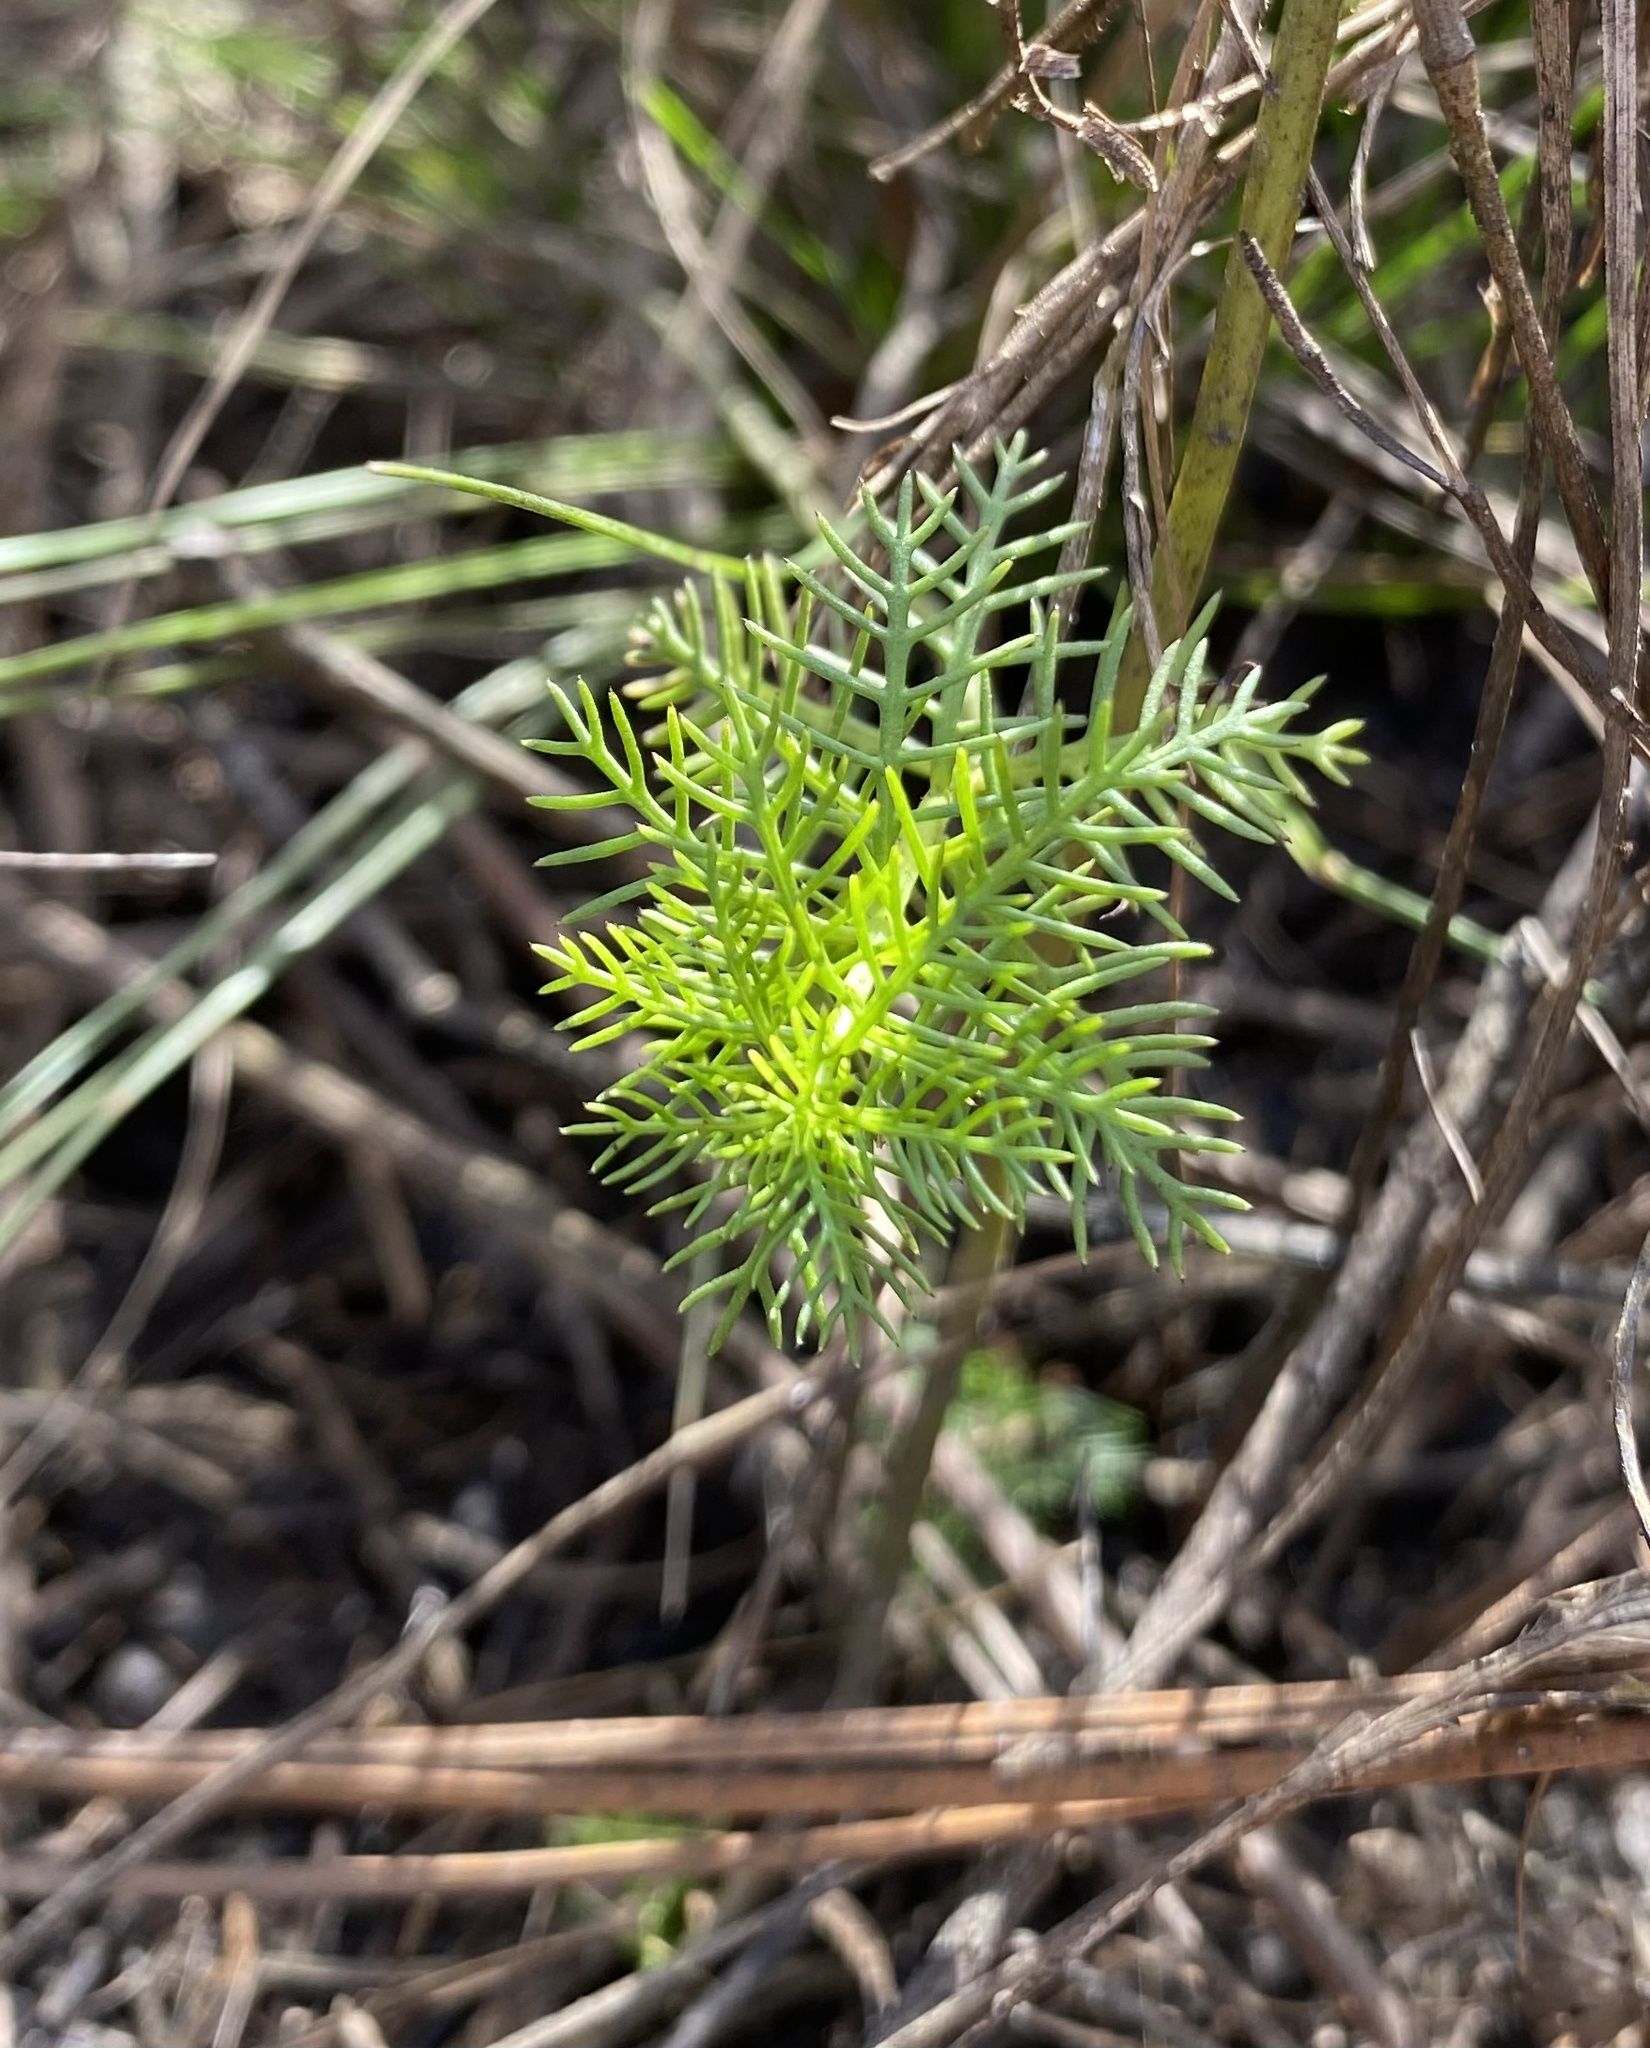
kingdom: Plantae
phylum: Tracheophyta
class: Magnoliopsida
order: Saxifragales
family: Haloragaceae
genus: Proserpinaca
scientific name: Proserpinaca pectinata
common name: Comb-leaved mermaidweed
